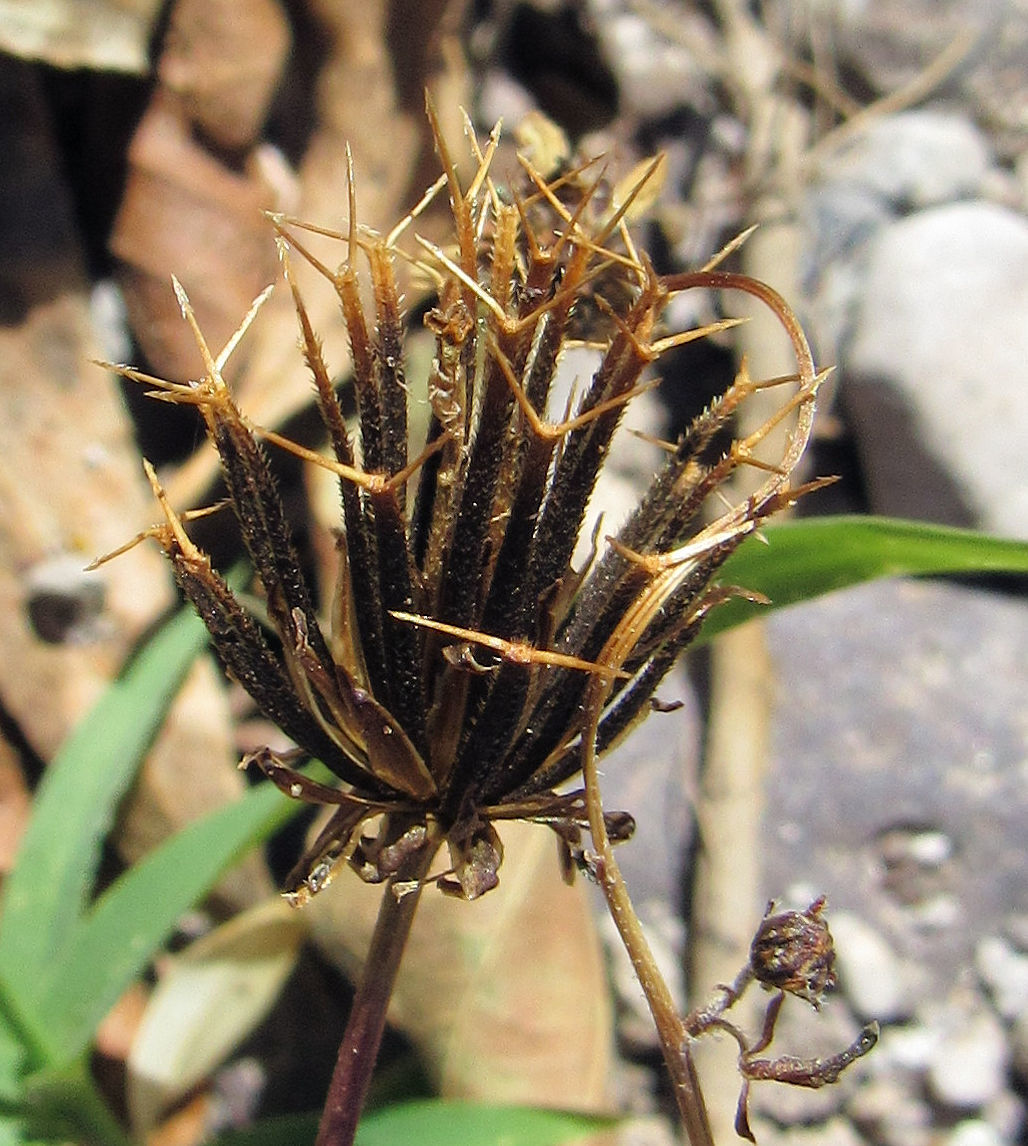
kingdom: Plantae
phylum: Tracheophyta
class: Magnoliopsida
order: Asterales
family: Asteraceae
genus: Bidens
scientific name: Bidens pilosa
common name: Black-jack
